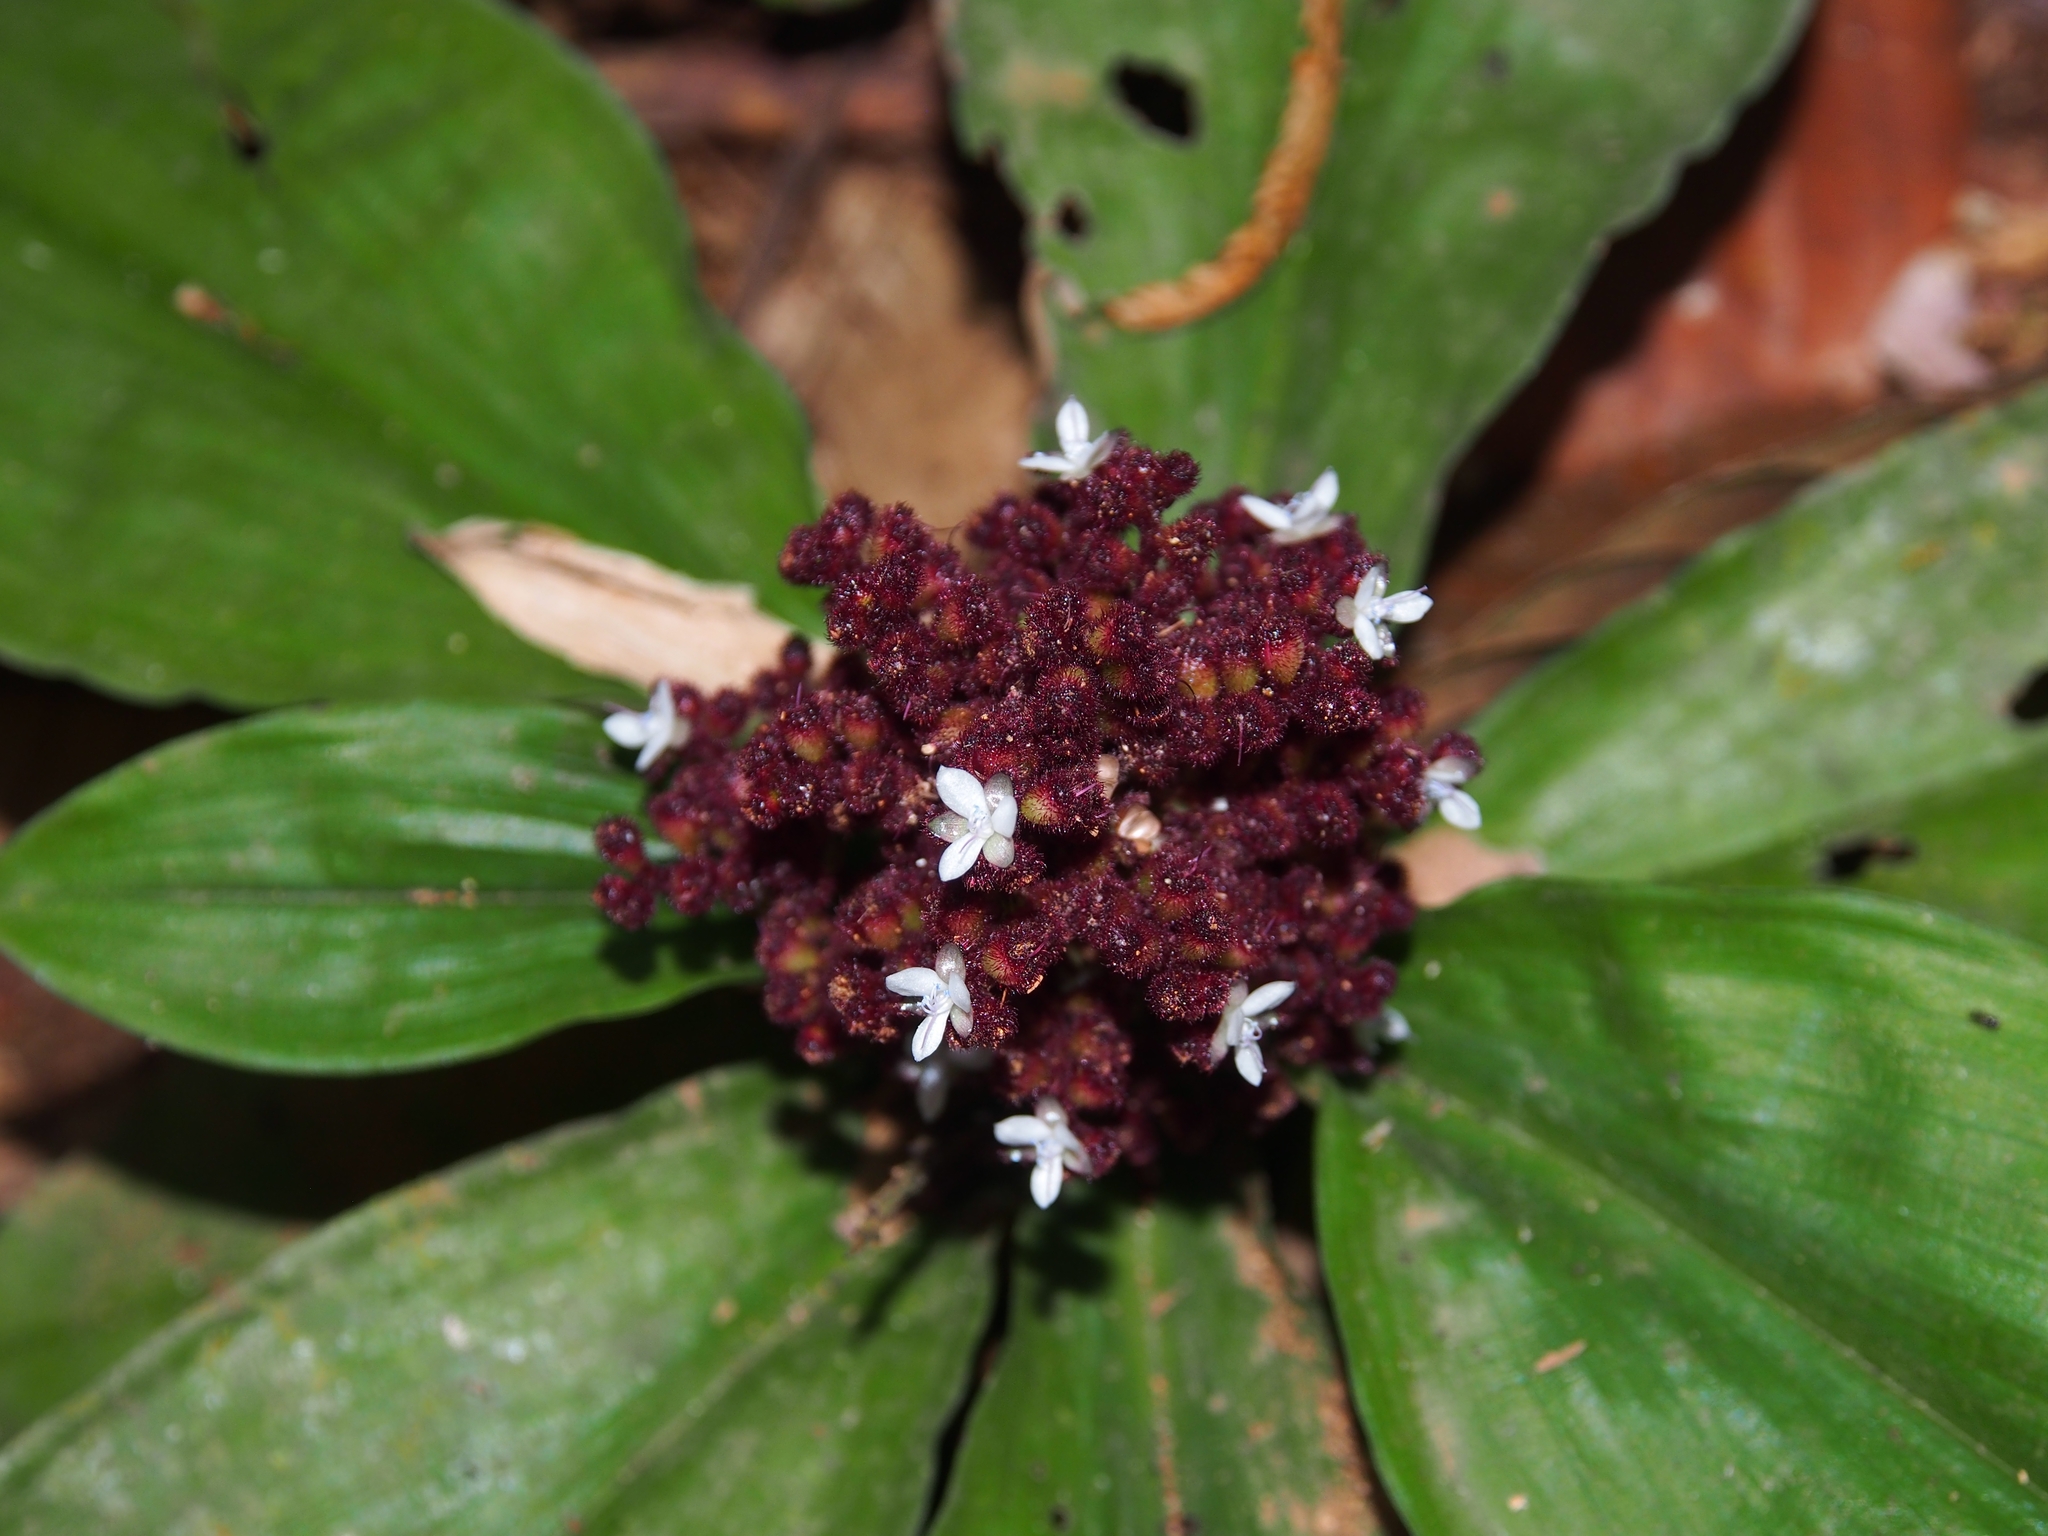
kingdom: Plantae
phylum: Tracheophyta
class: Liliopsida
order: Commelinales
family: Commelinaceae
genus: Floscopa
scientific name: Floscopa robusta
